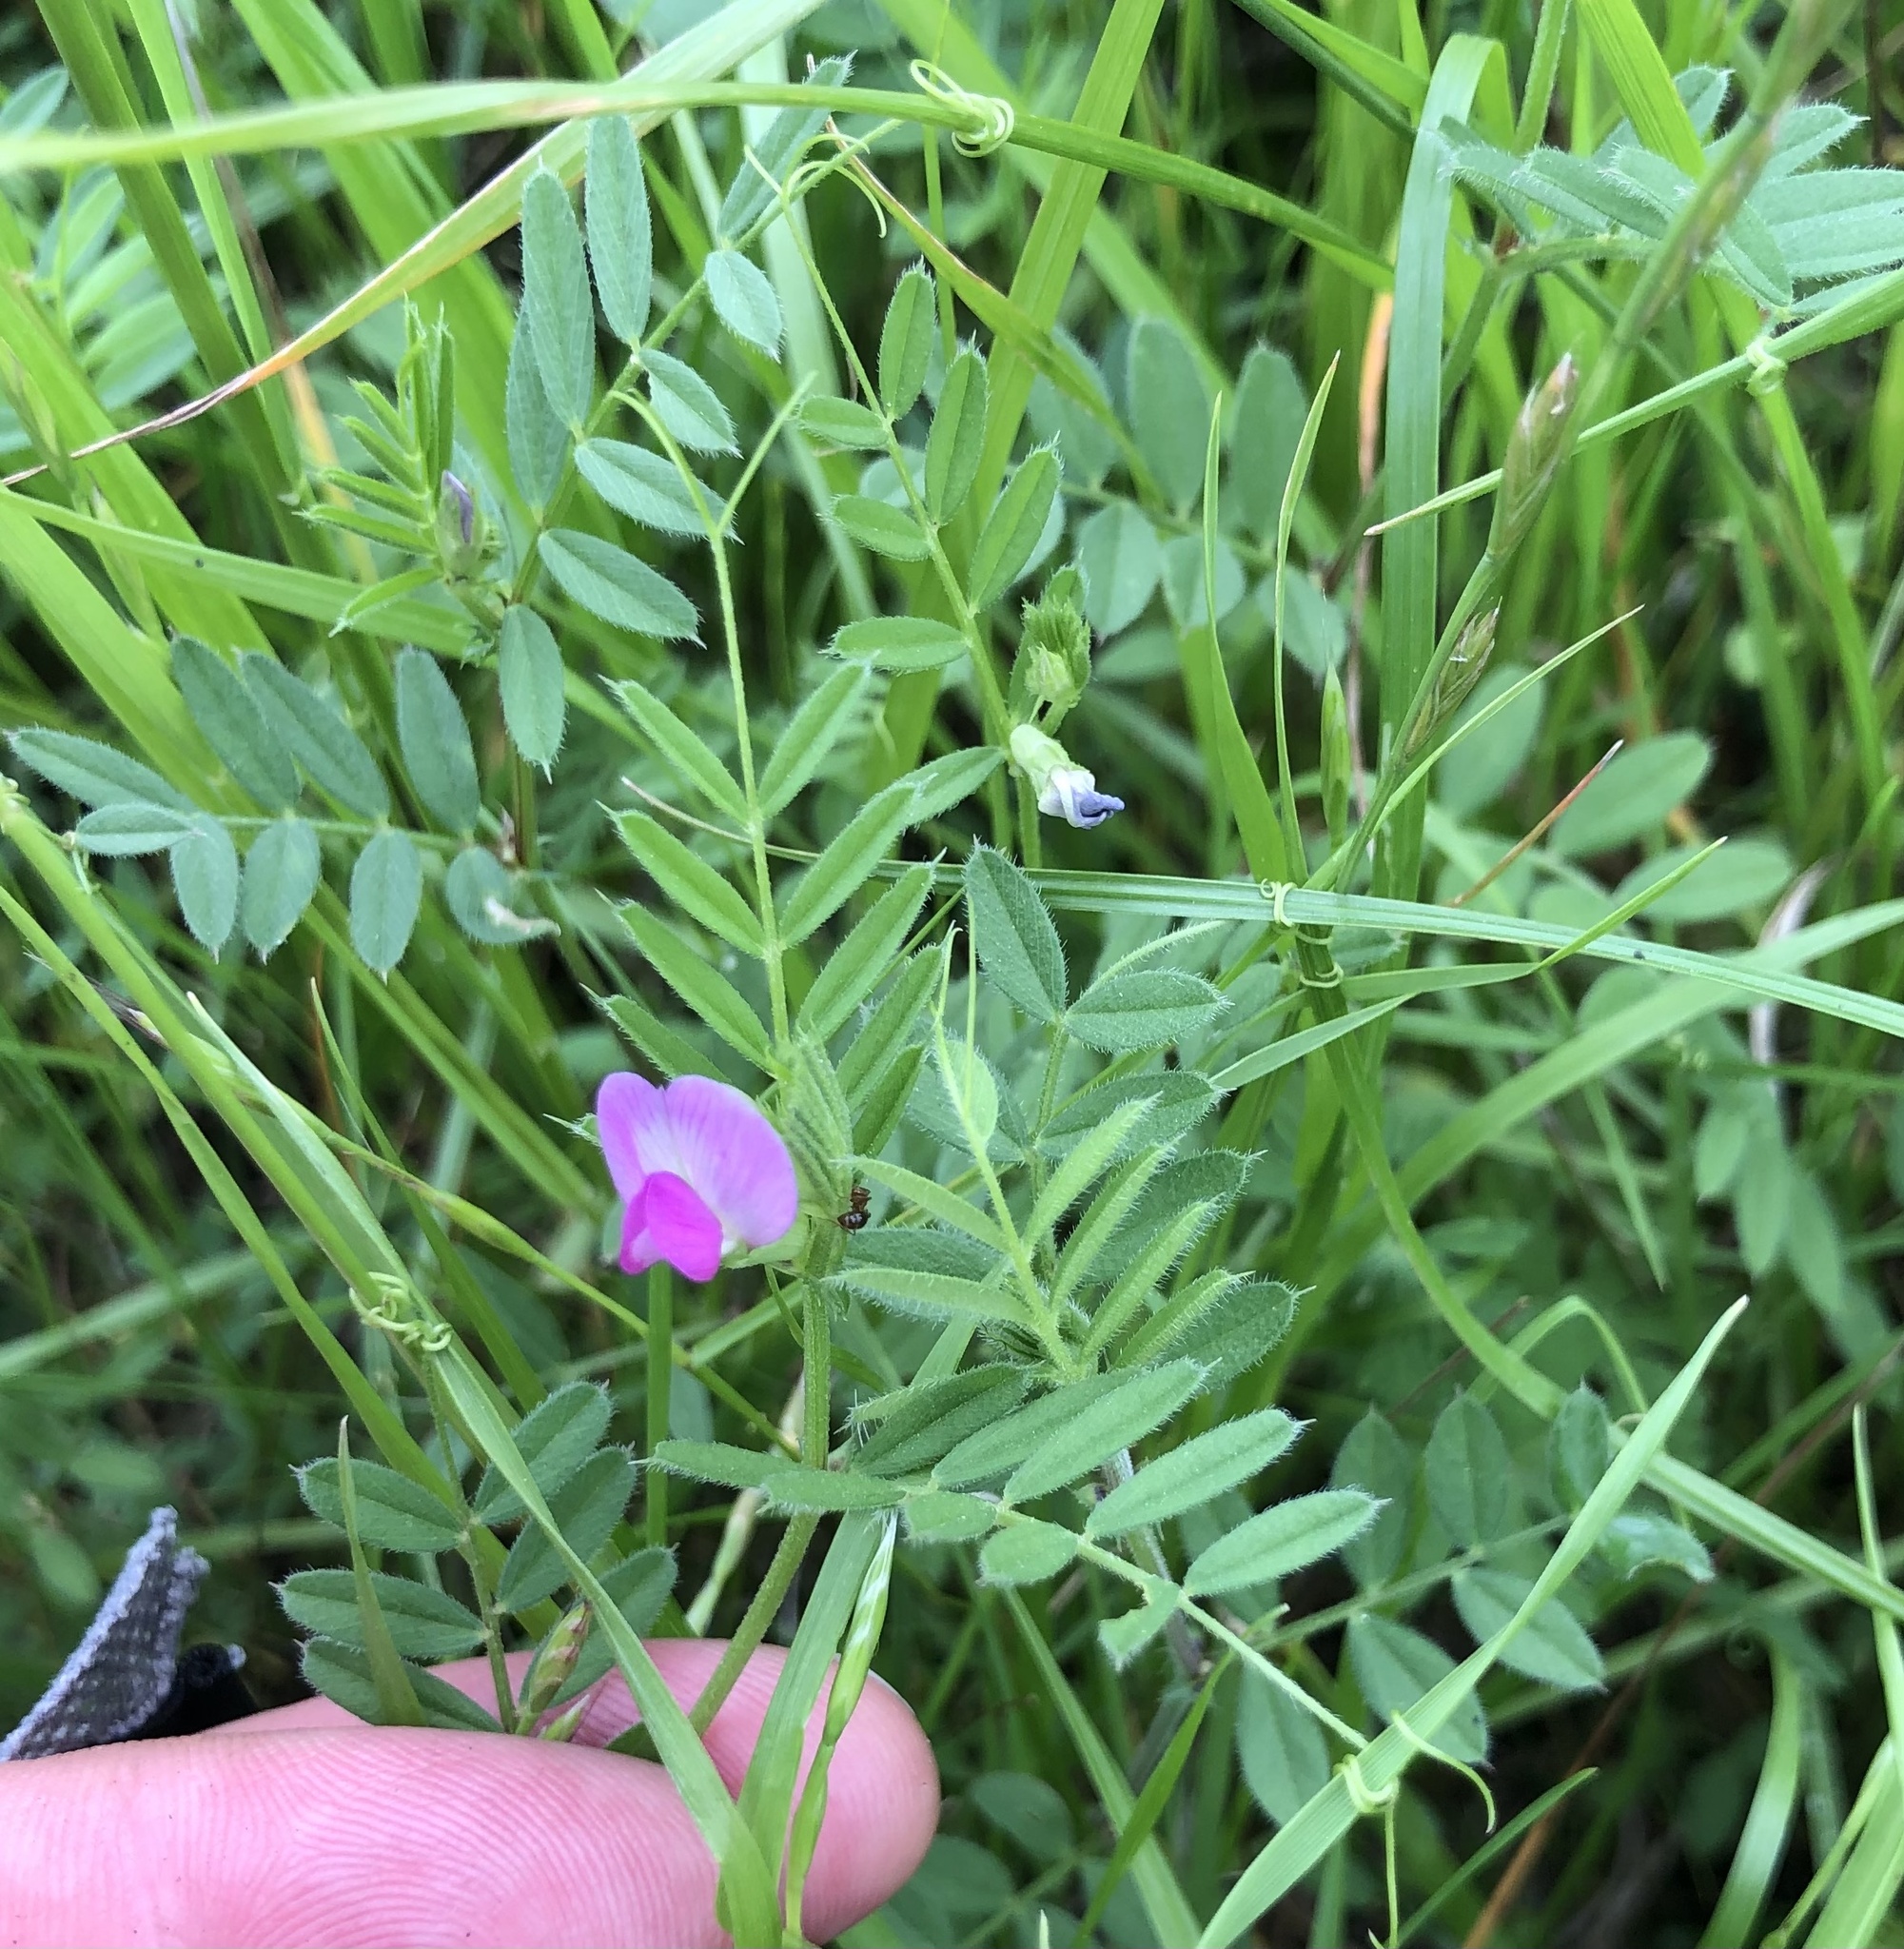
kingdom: Plantae
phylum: Tracheophyta
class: Magnoliopsida
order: Fabales
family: Fabaceae
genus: Vicia
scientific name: Vicia sativa
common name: Garden vetch
